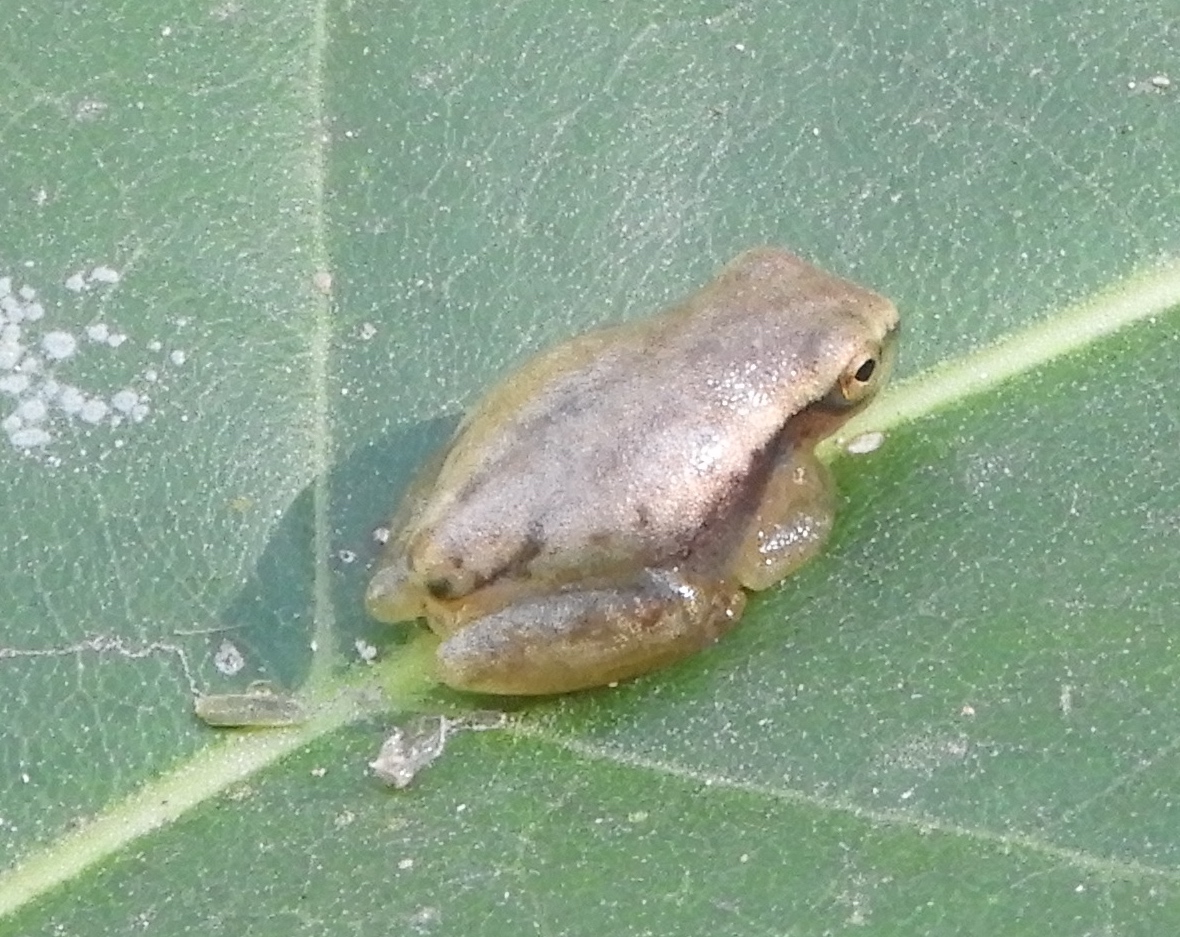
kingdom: Animalia
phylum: Chordata
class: Amphibia
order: Anura
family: Hylidae
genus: Tlalocohyla
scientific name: Tlalocohyla smithii
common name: Dwarf mexican treefrog
